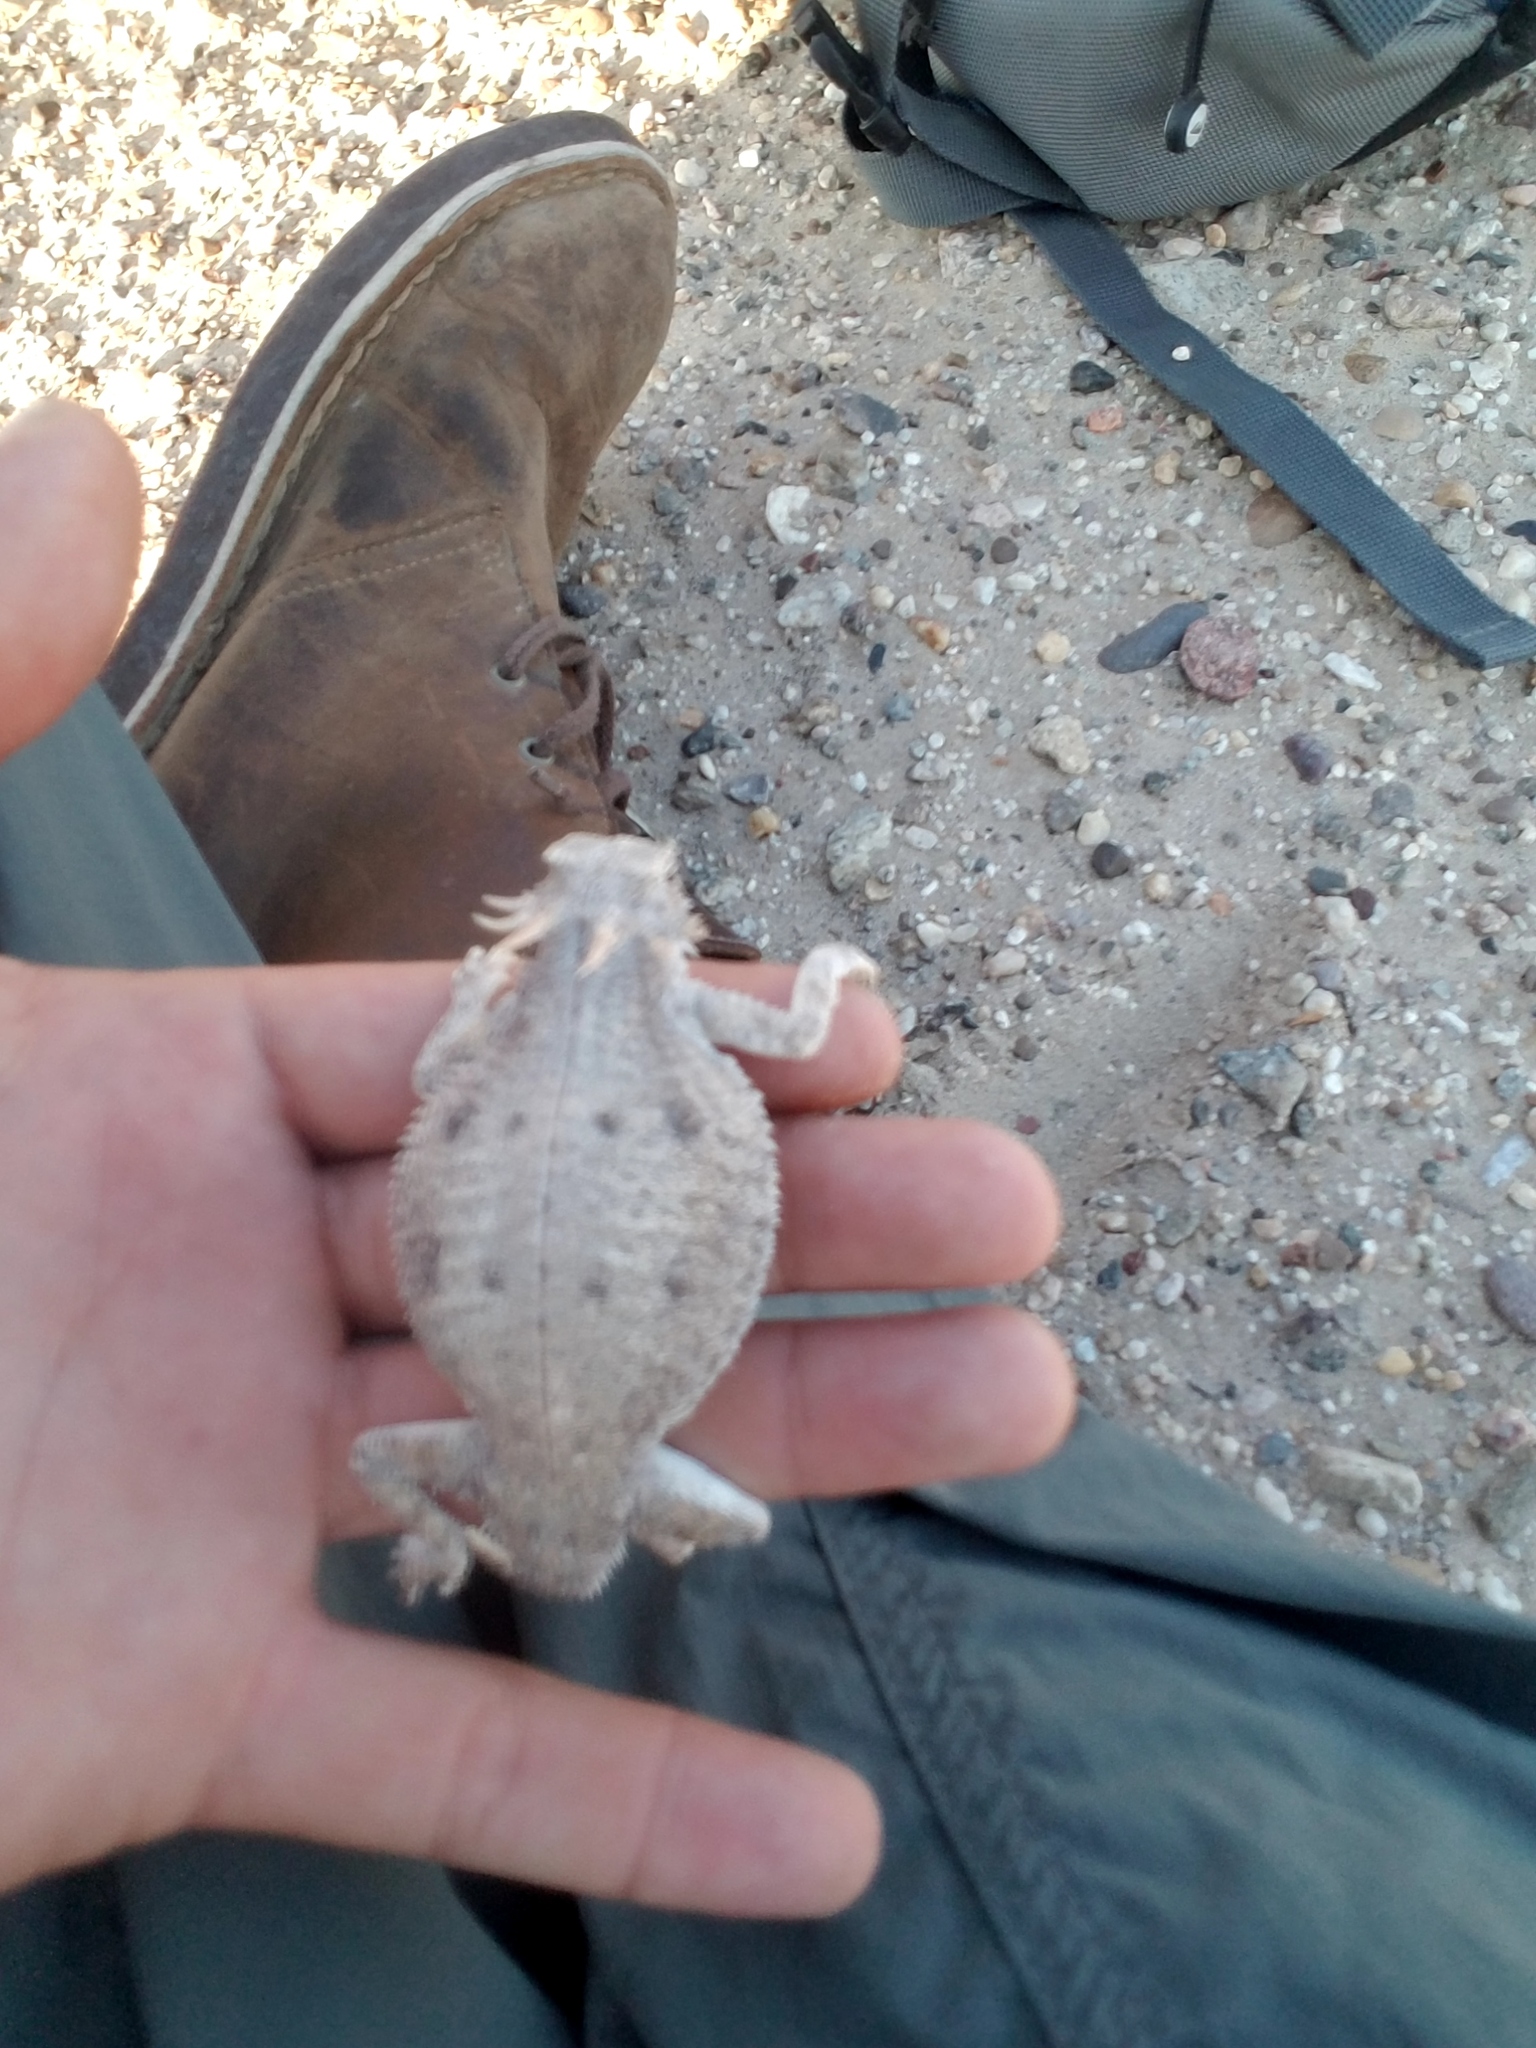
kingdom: Animalia
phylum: Chordata
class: Squamata
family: Phrynosomatidae
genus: Phrynosoma
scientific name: Phrynosoma mcallii
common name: Flat-tailed horned lizard
